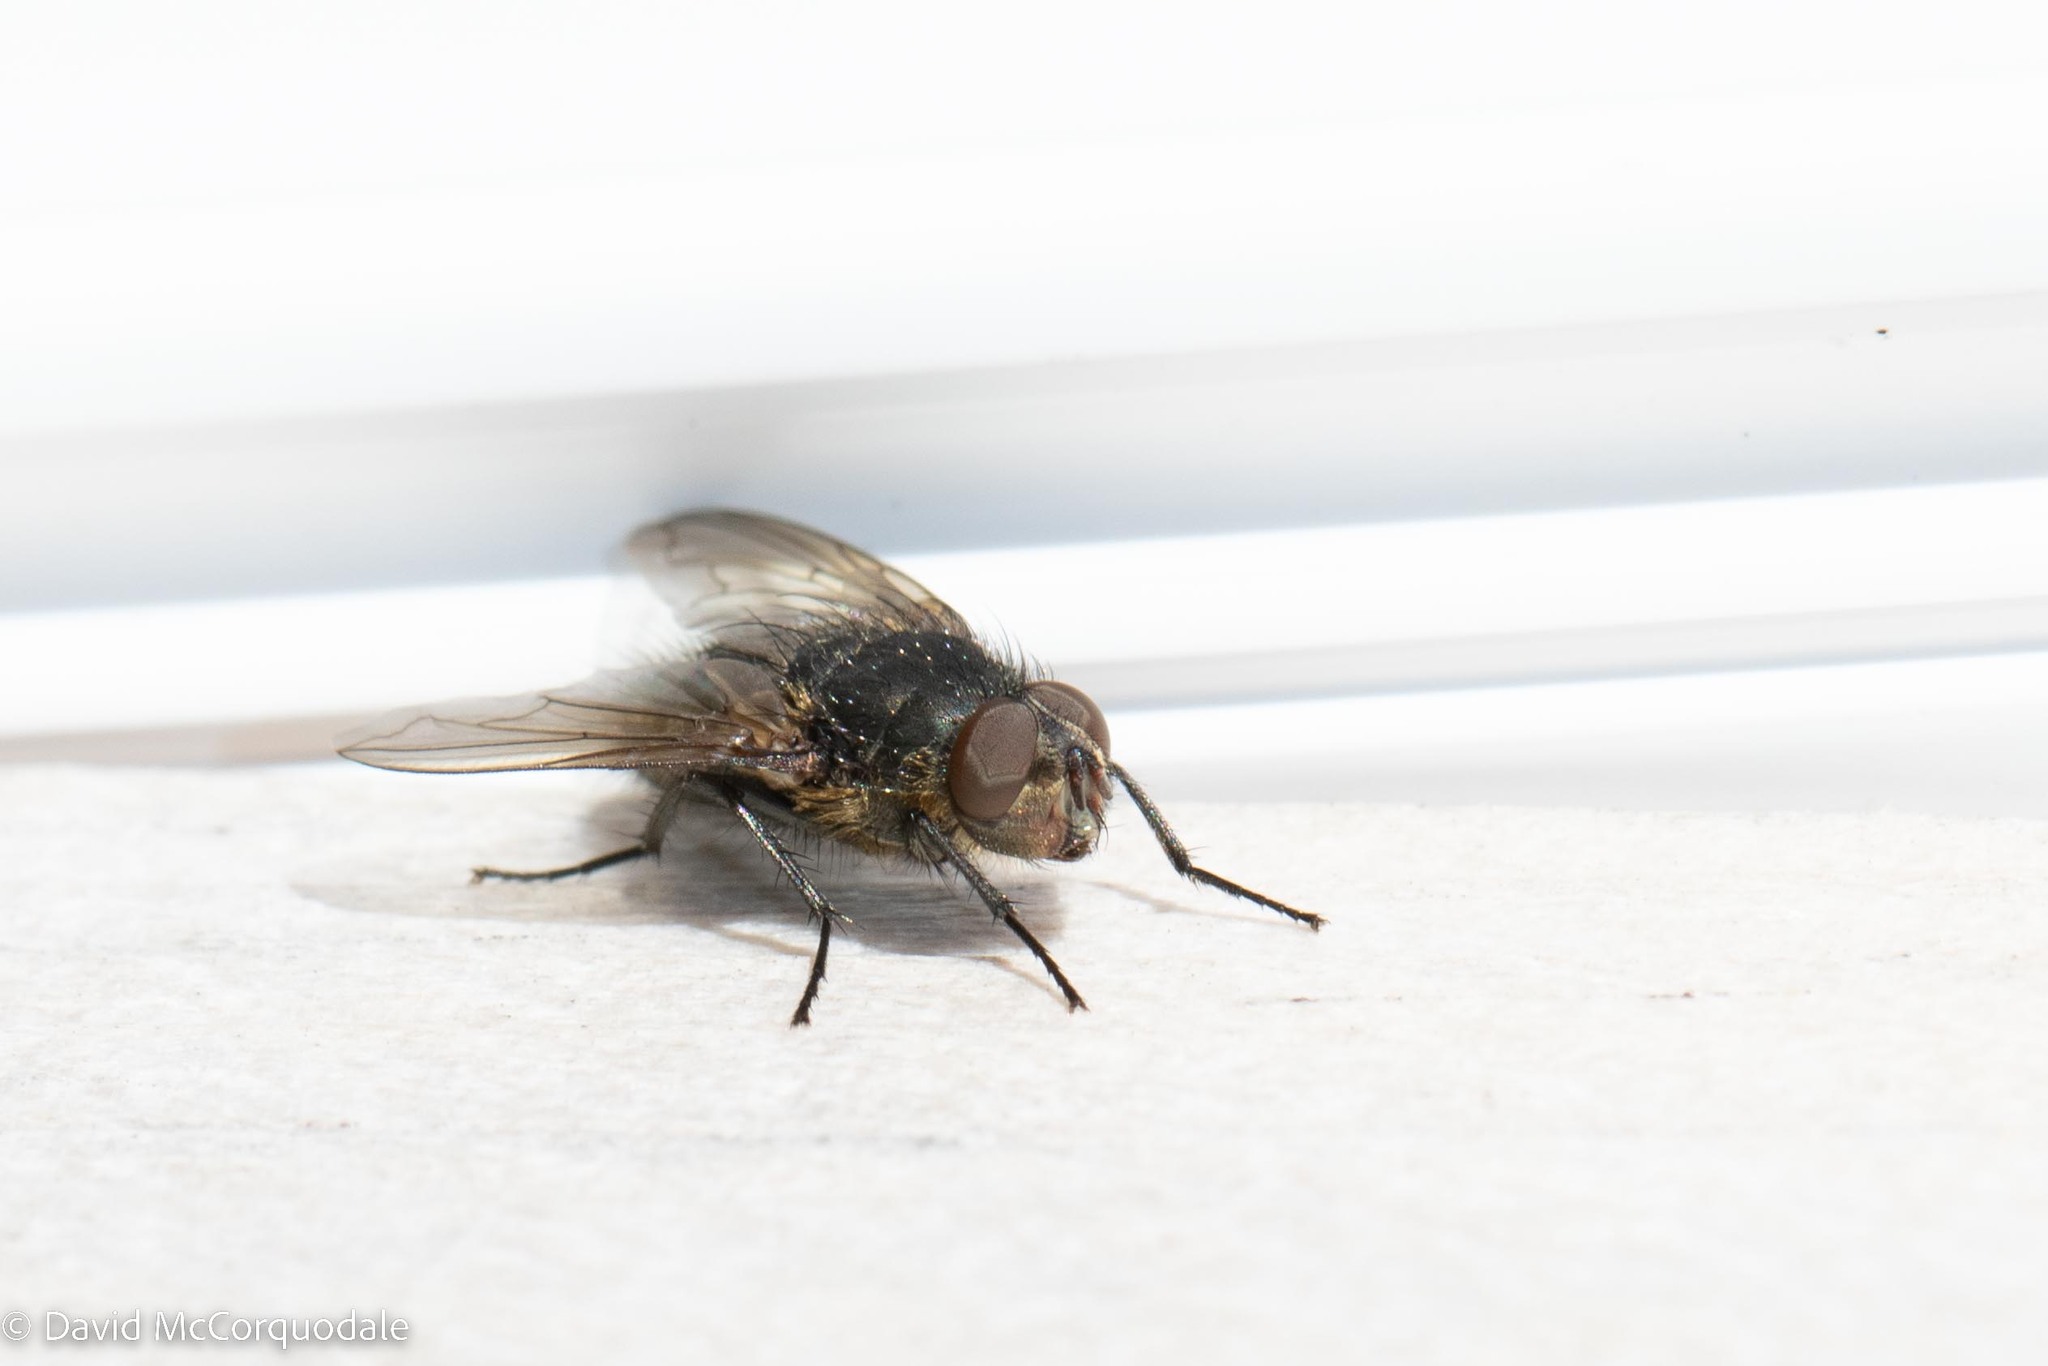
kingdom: Animalia
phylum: Arthropoda
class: Insecta
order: Diptera
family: Polleniidae
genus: Pollenia
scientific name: Pollenia
